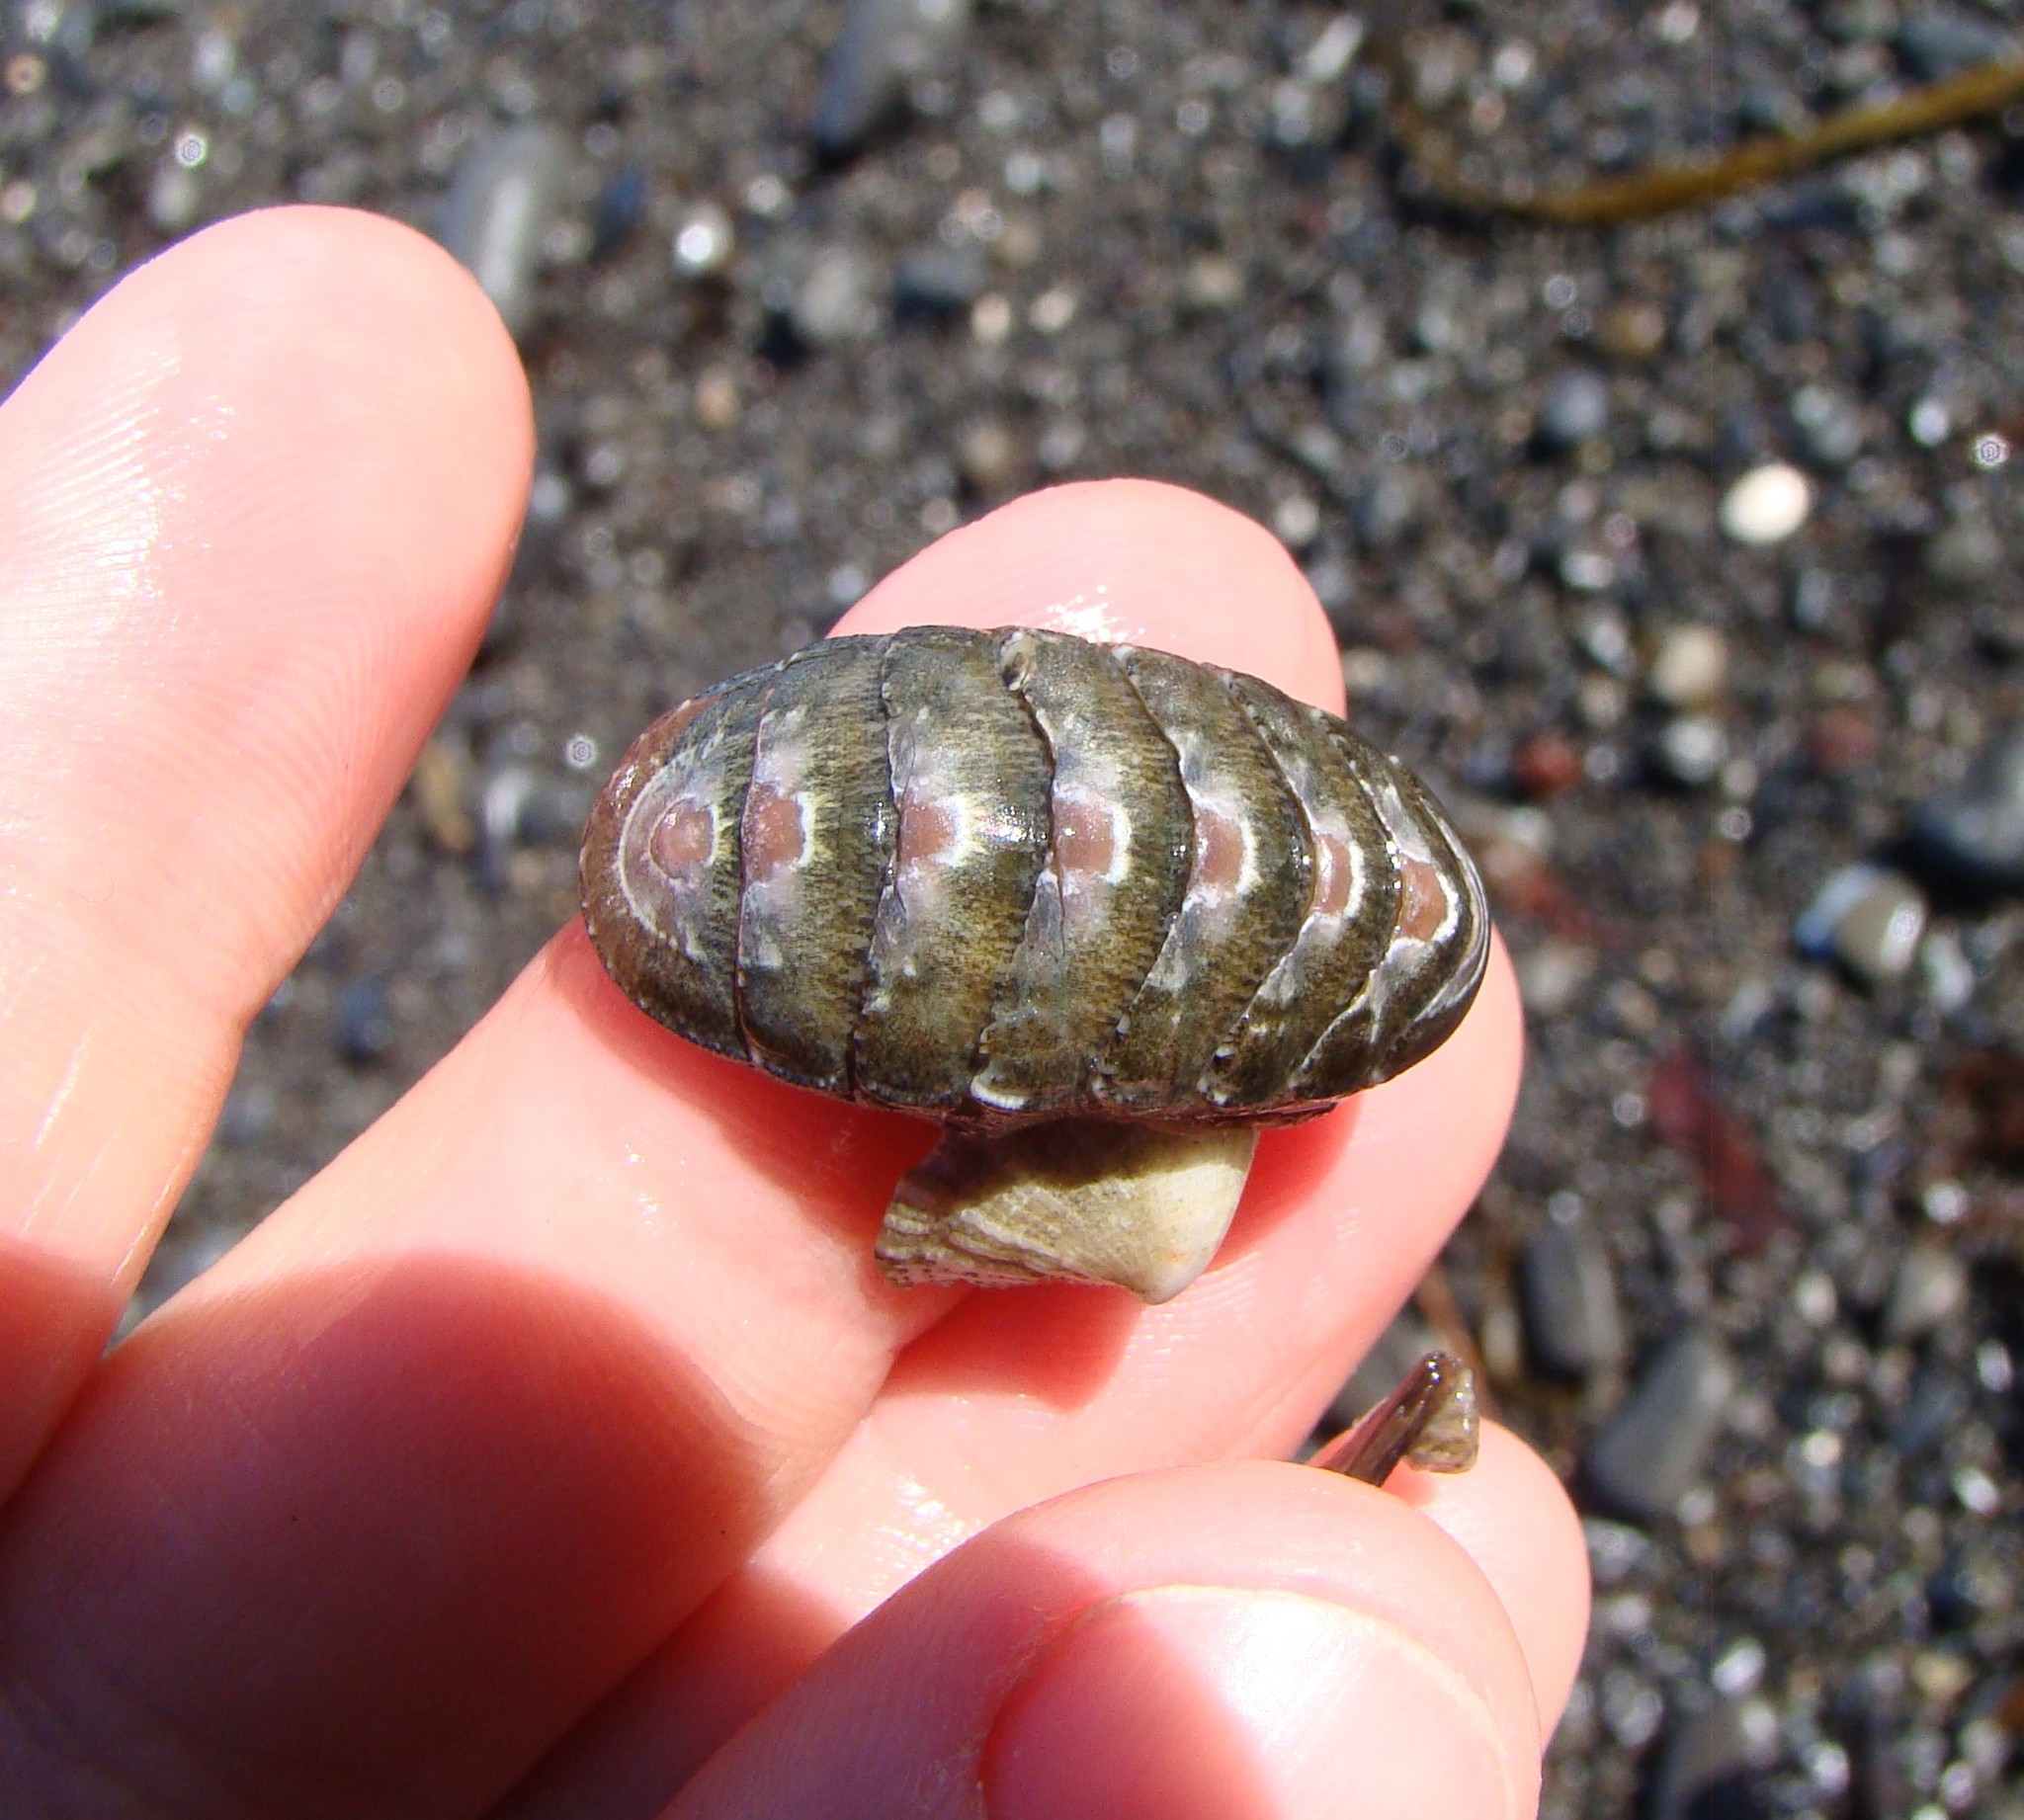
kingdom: Animalia
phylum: Mollusca
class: Polyplacophora
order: Chitonida
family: Ischnochitonidae
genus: Ischnochiton
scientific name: Ischnochiton maorianus
